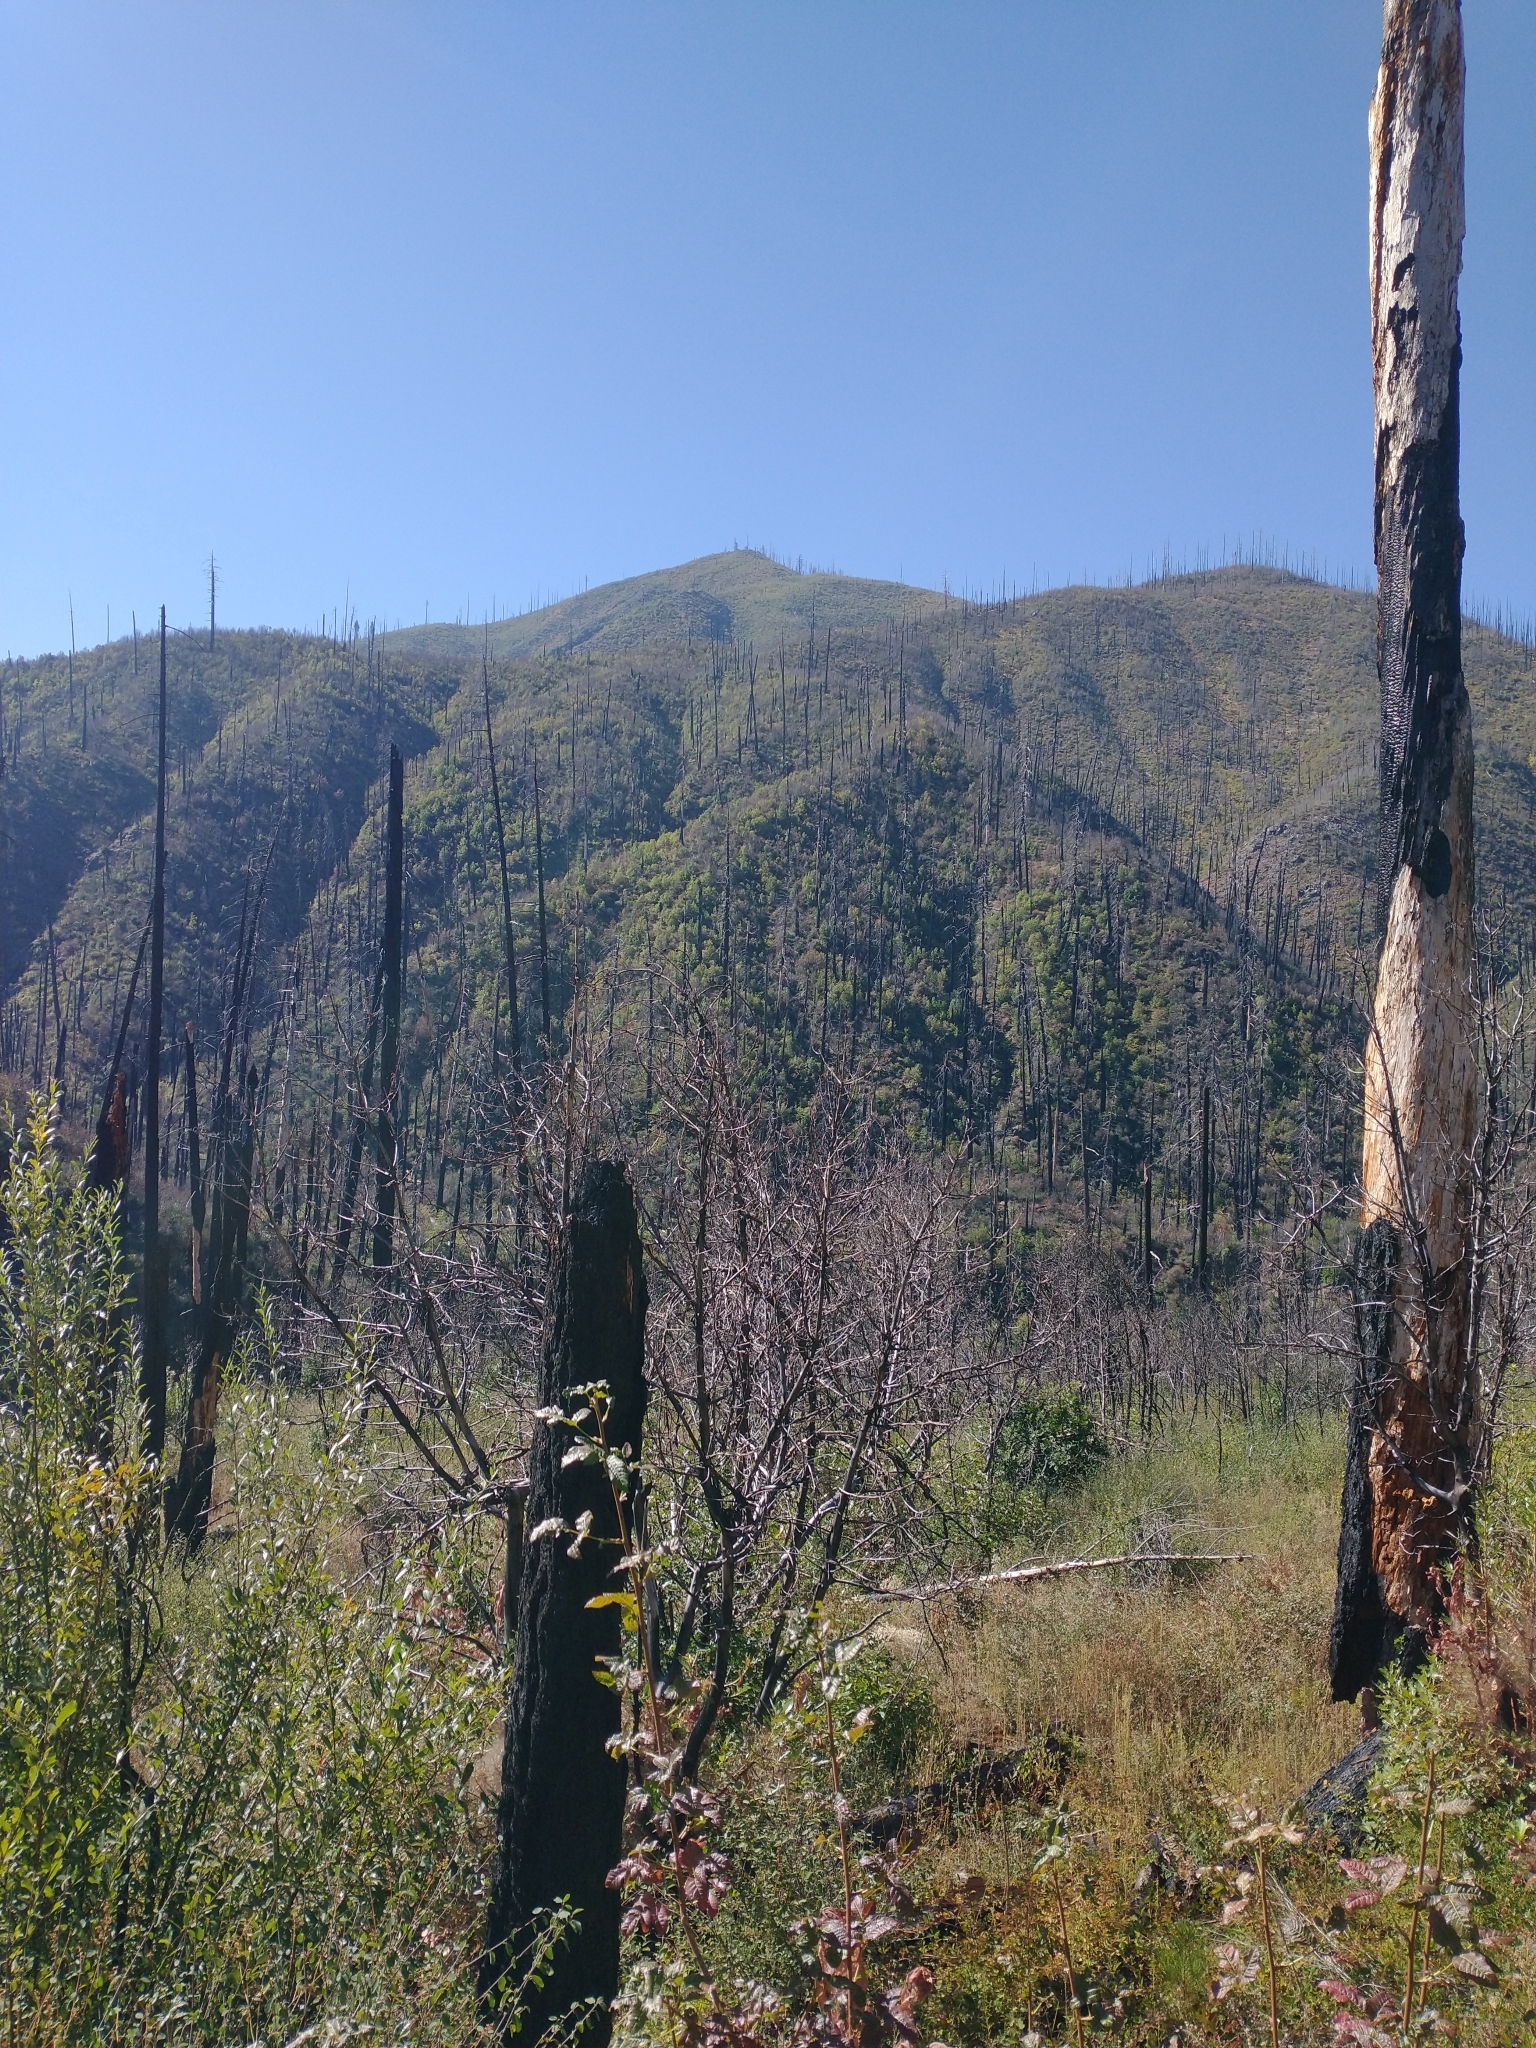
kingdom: Plantae
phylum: Tracheophyta
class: Magnoliopsida
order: Sapindales
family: Anacardiaceae
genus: Toxicodendron
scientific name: Toxicodendron diversilobum
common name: Pacific poison-oak
